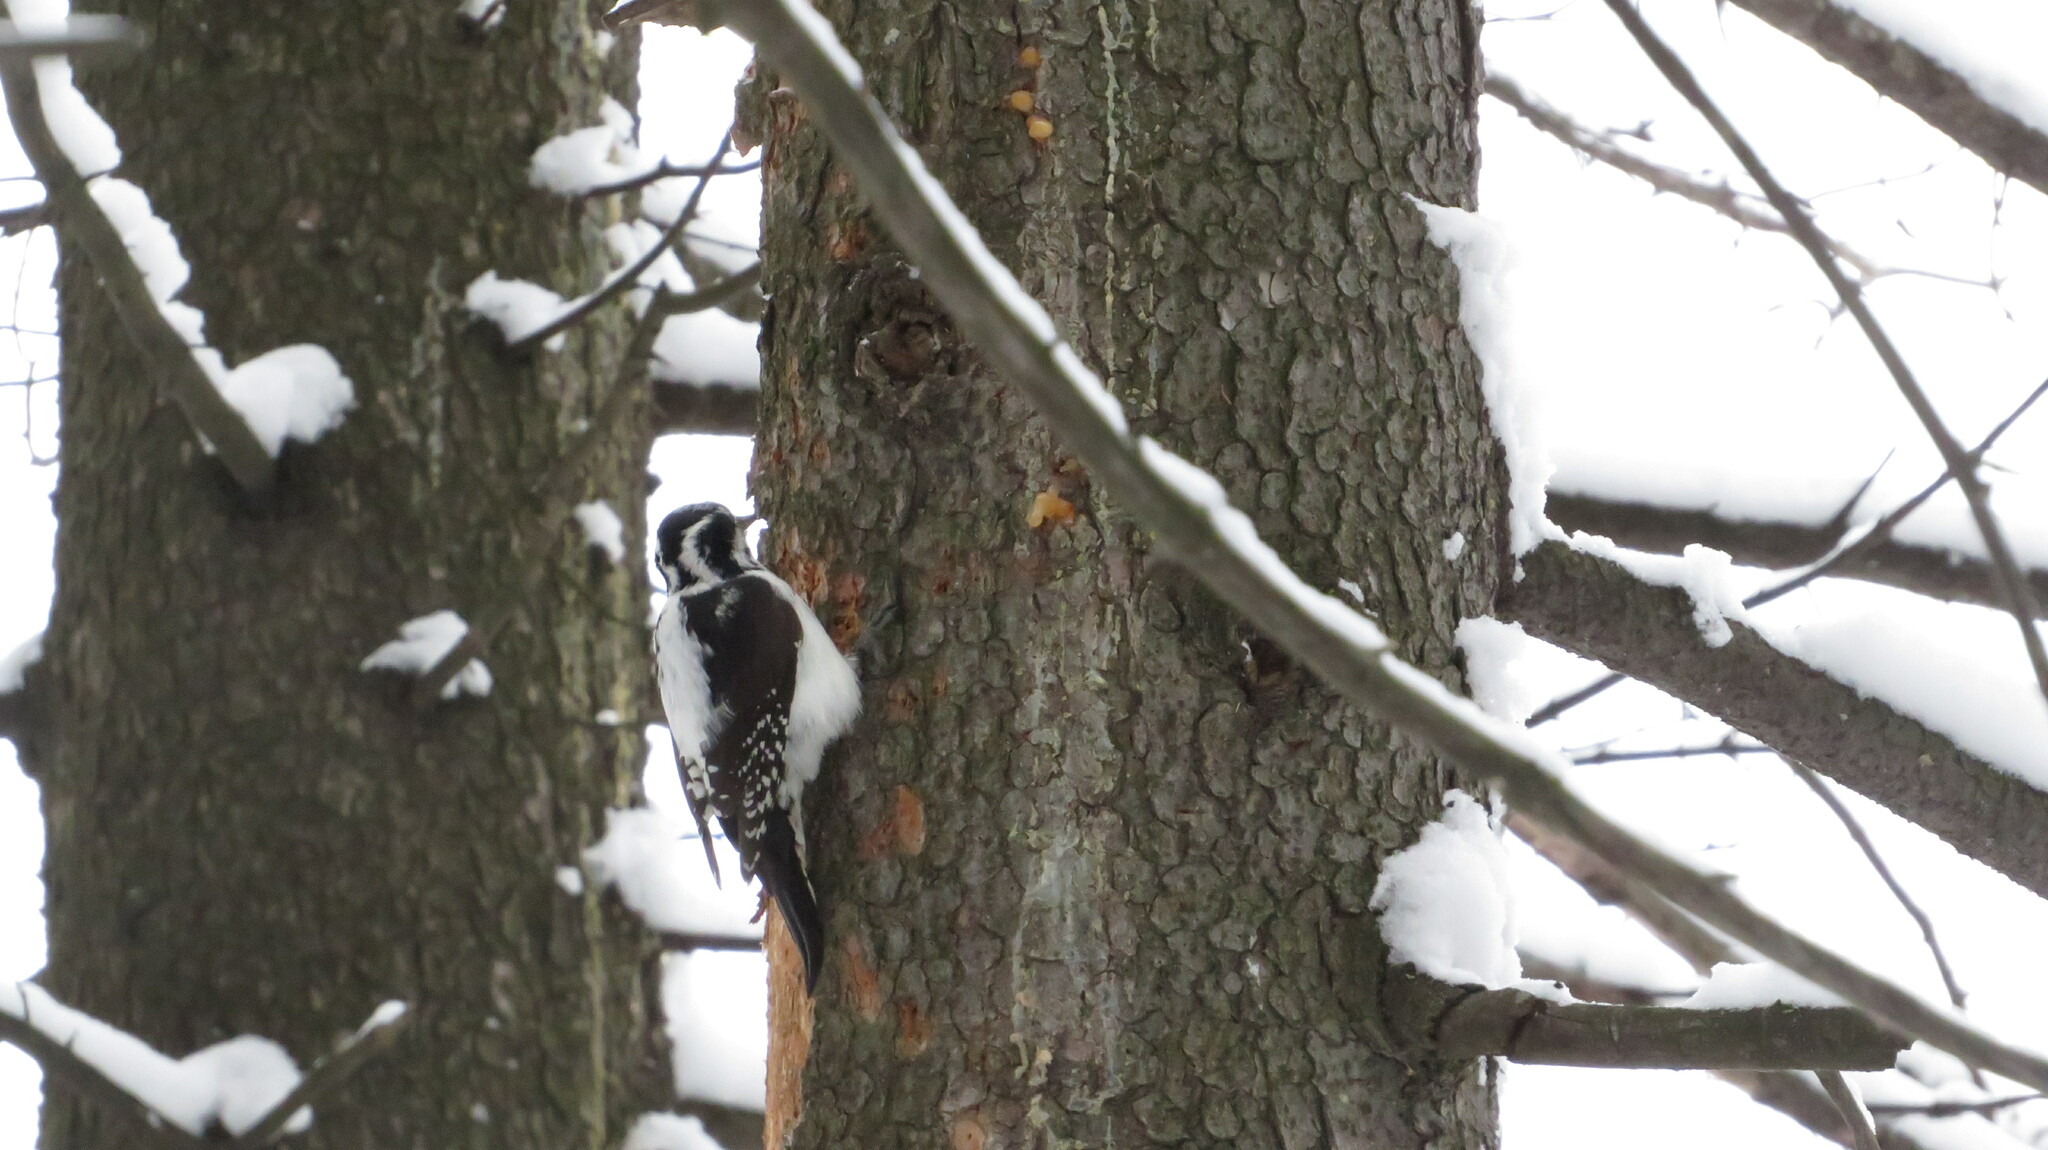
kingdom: Animalia
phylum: Chordata
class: Aves
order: Piciformes
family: Picidae
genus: Picoides
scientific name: Picoides tridactylus
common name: Eurasian three-toed woodpecker
